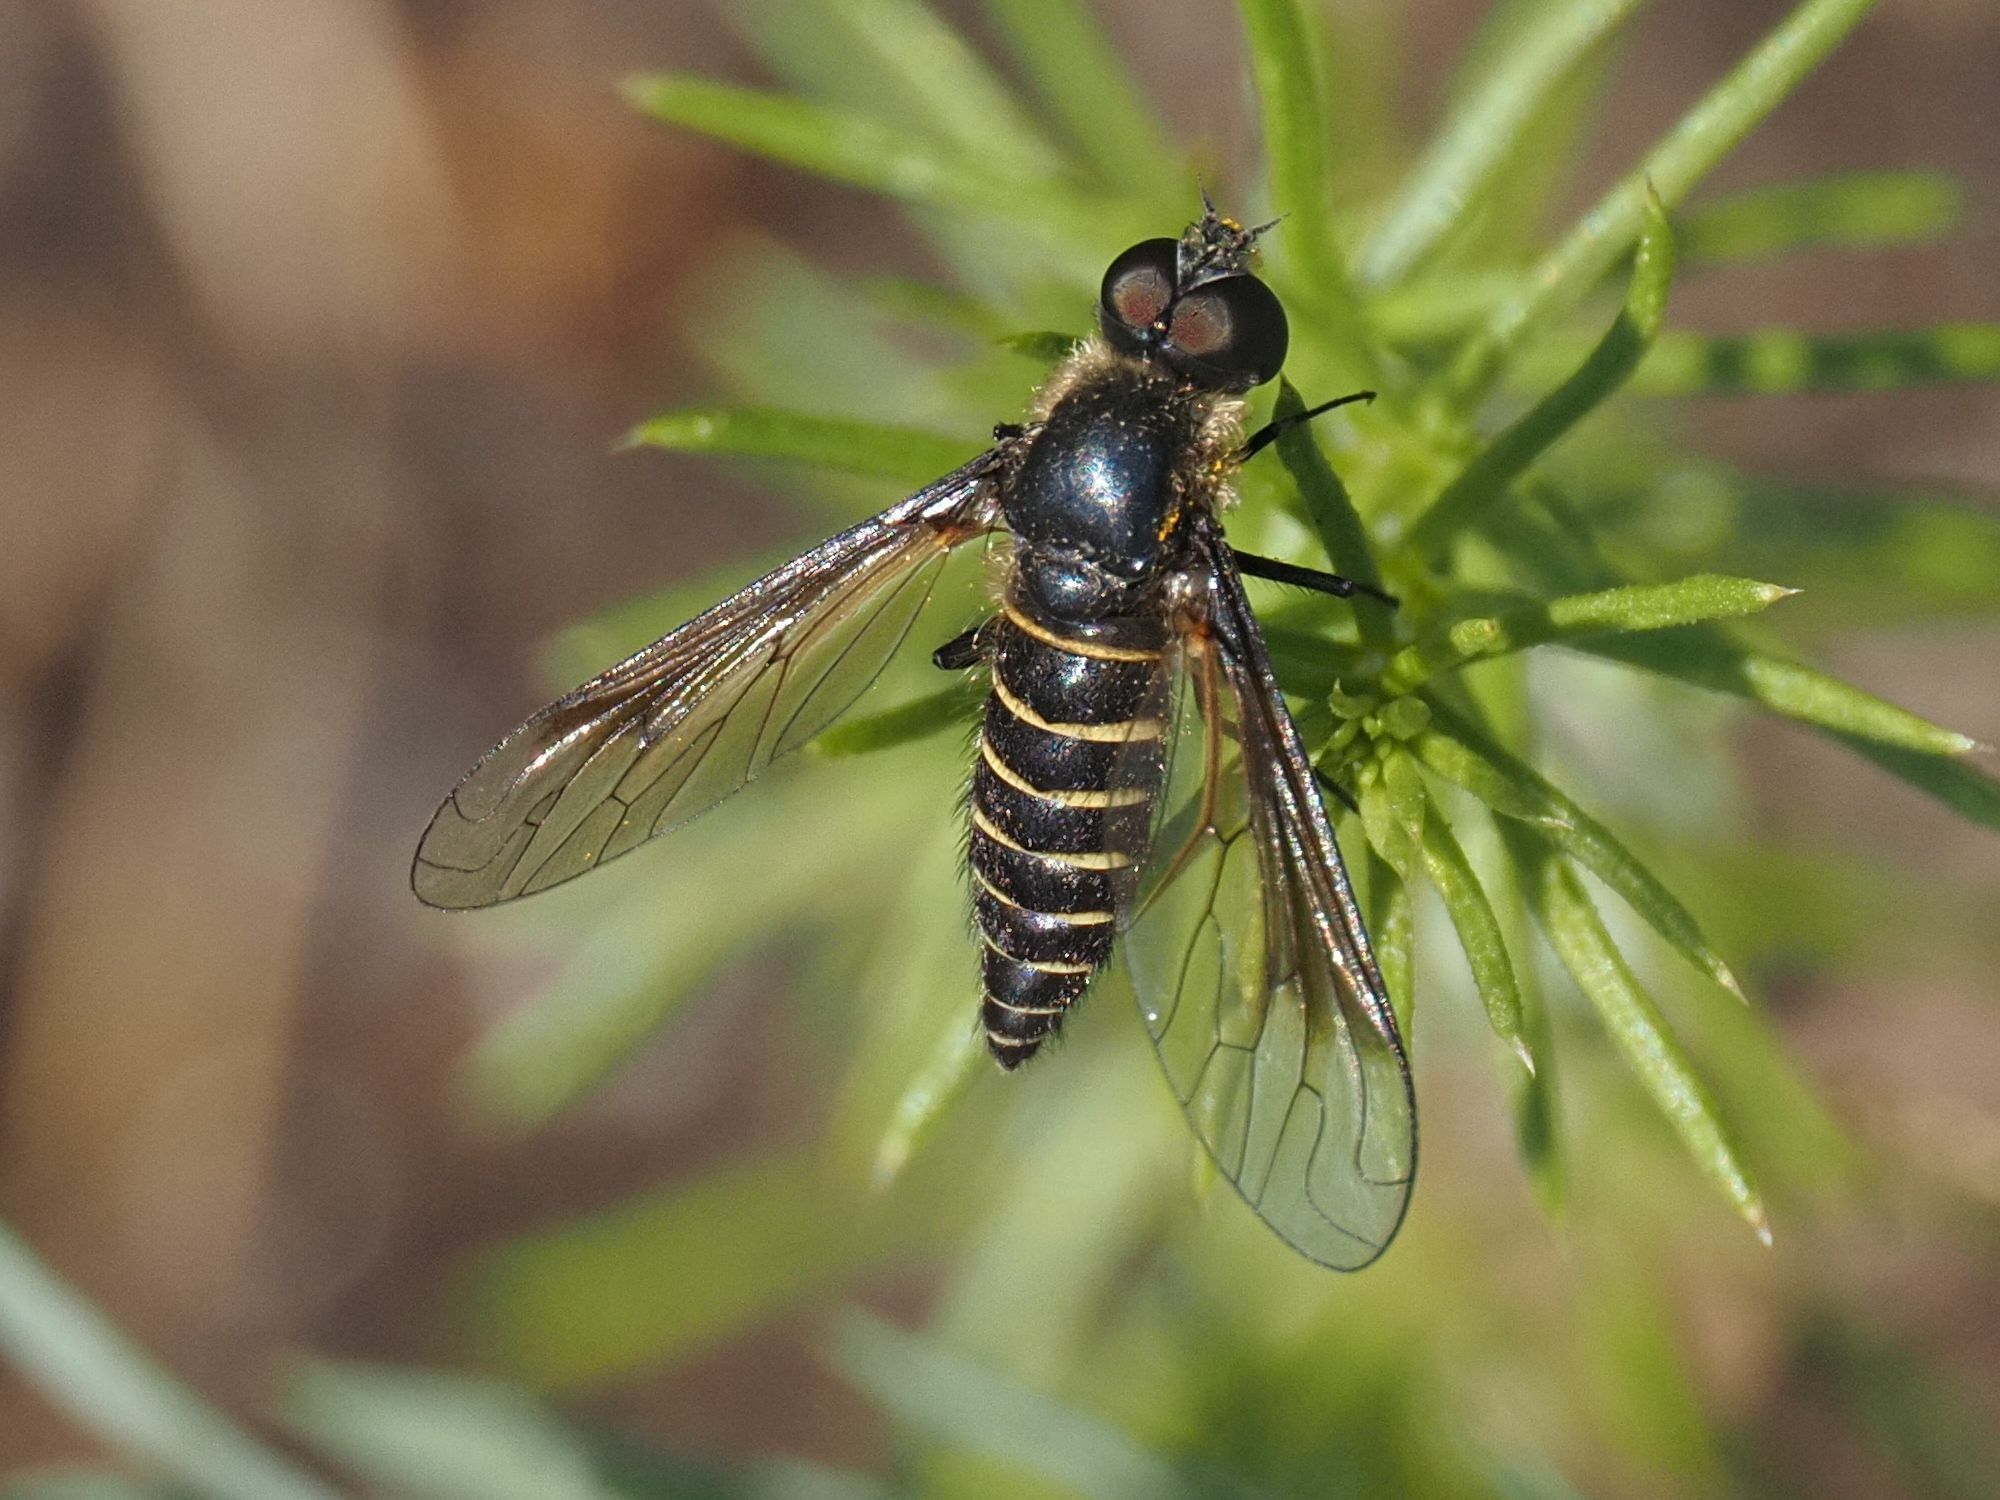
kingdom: Animalia
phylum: Arthropoda
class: Insecta
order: Diptera
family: Bombyliidae
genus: Lomatia
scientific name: Lomatia lateralis
